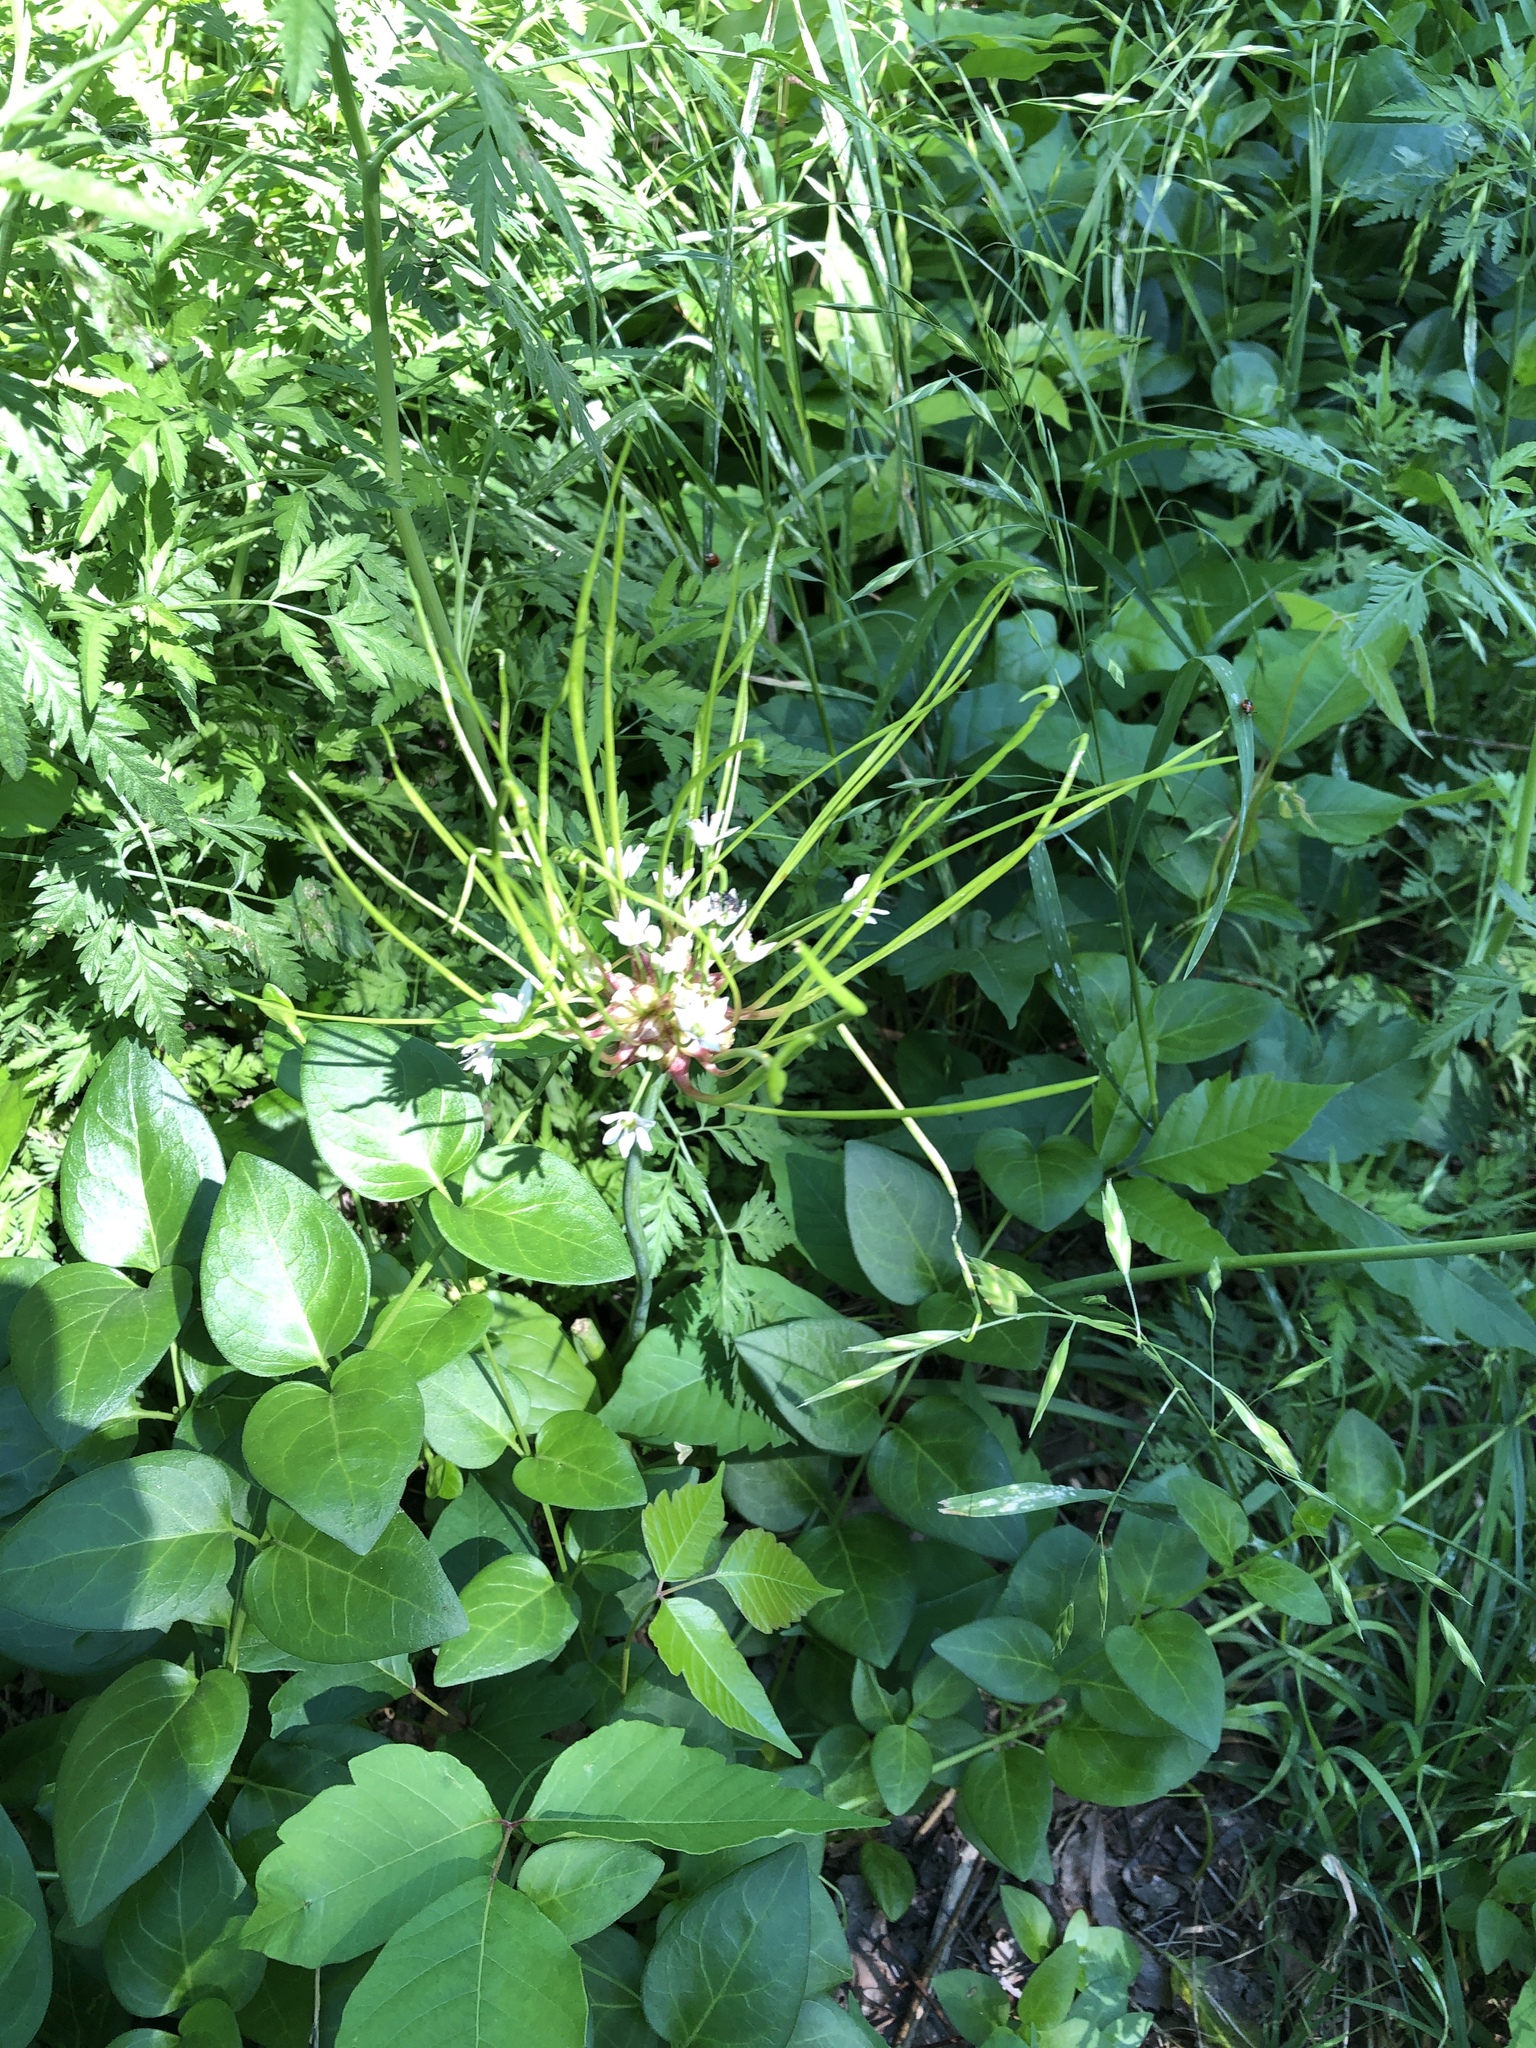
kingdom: Plantae
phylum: Tracheophyta
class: Liliopsida
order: Asparagales
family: Amaryllidaceae
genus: Allium
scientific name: Allium canadense
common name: Meadow garlic
